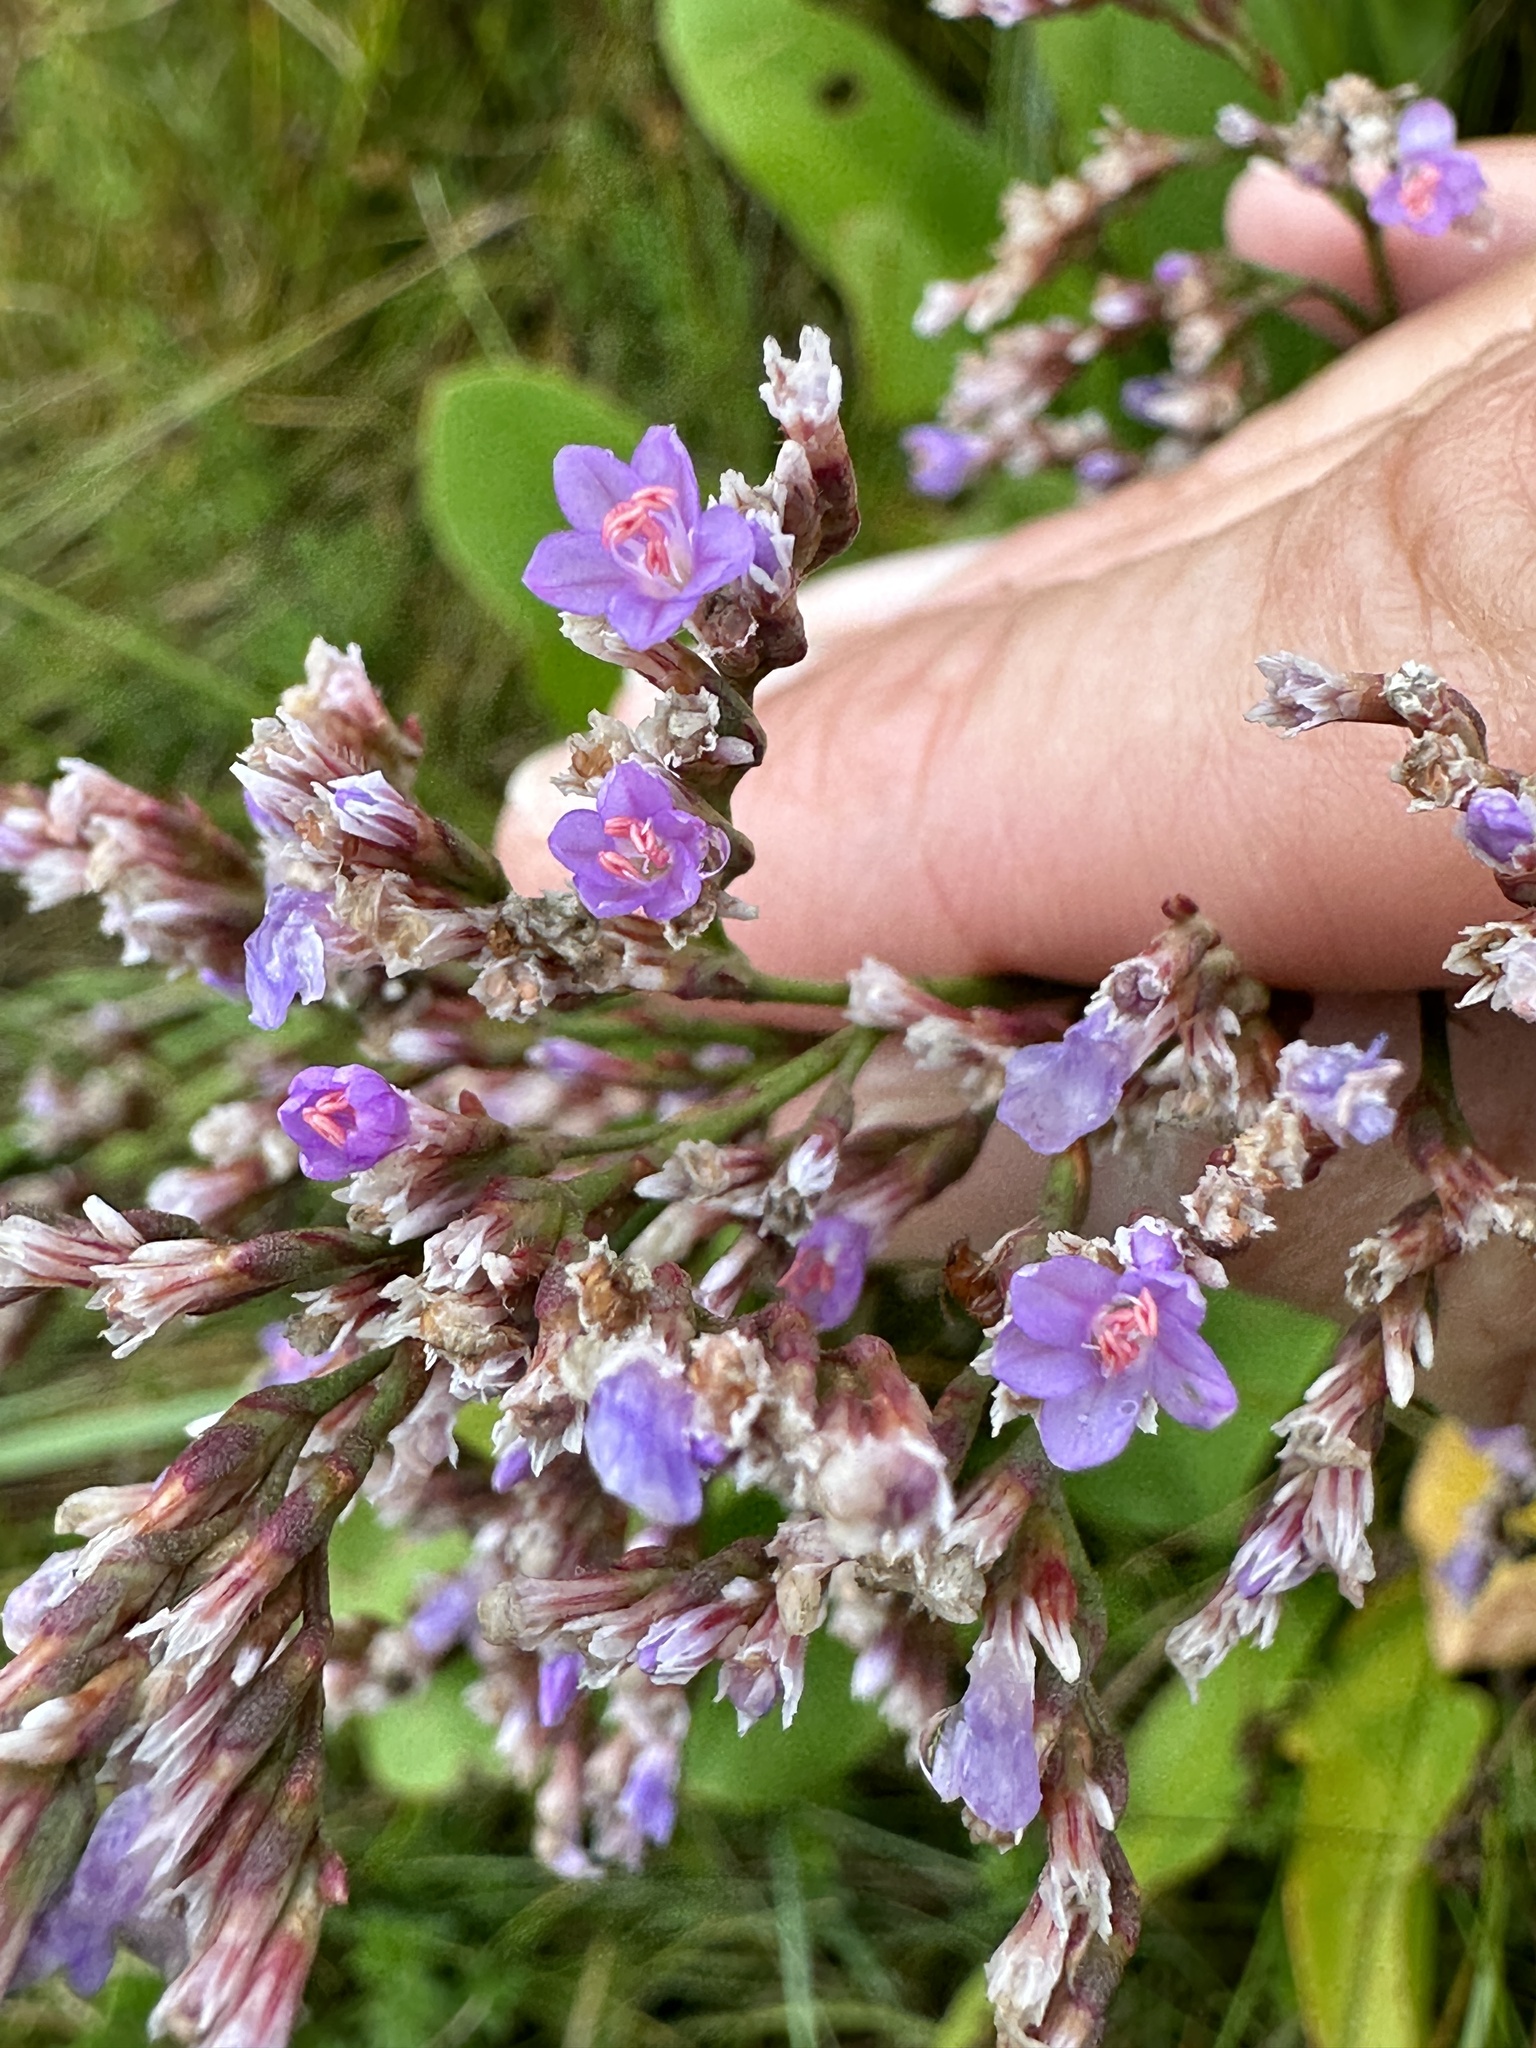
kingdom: Plantae
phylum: Tracheophyta
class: Magnoliopsida
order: Caryophyllales
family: Plumbaginaceae
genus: Limonium
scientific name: Limonium vulgare
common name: Common sea-lavender
